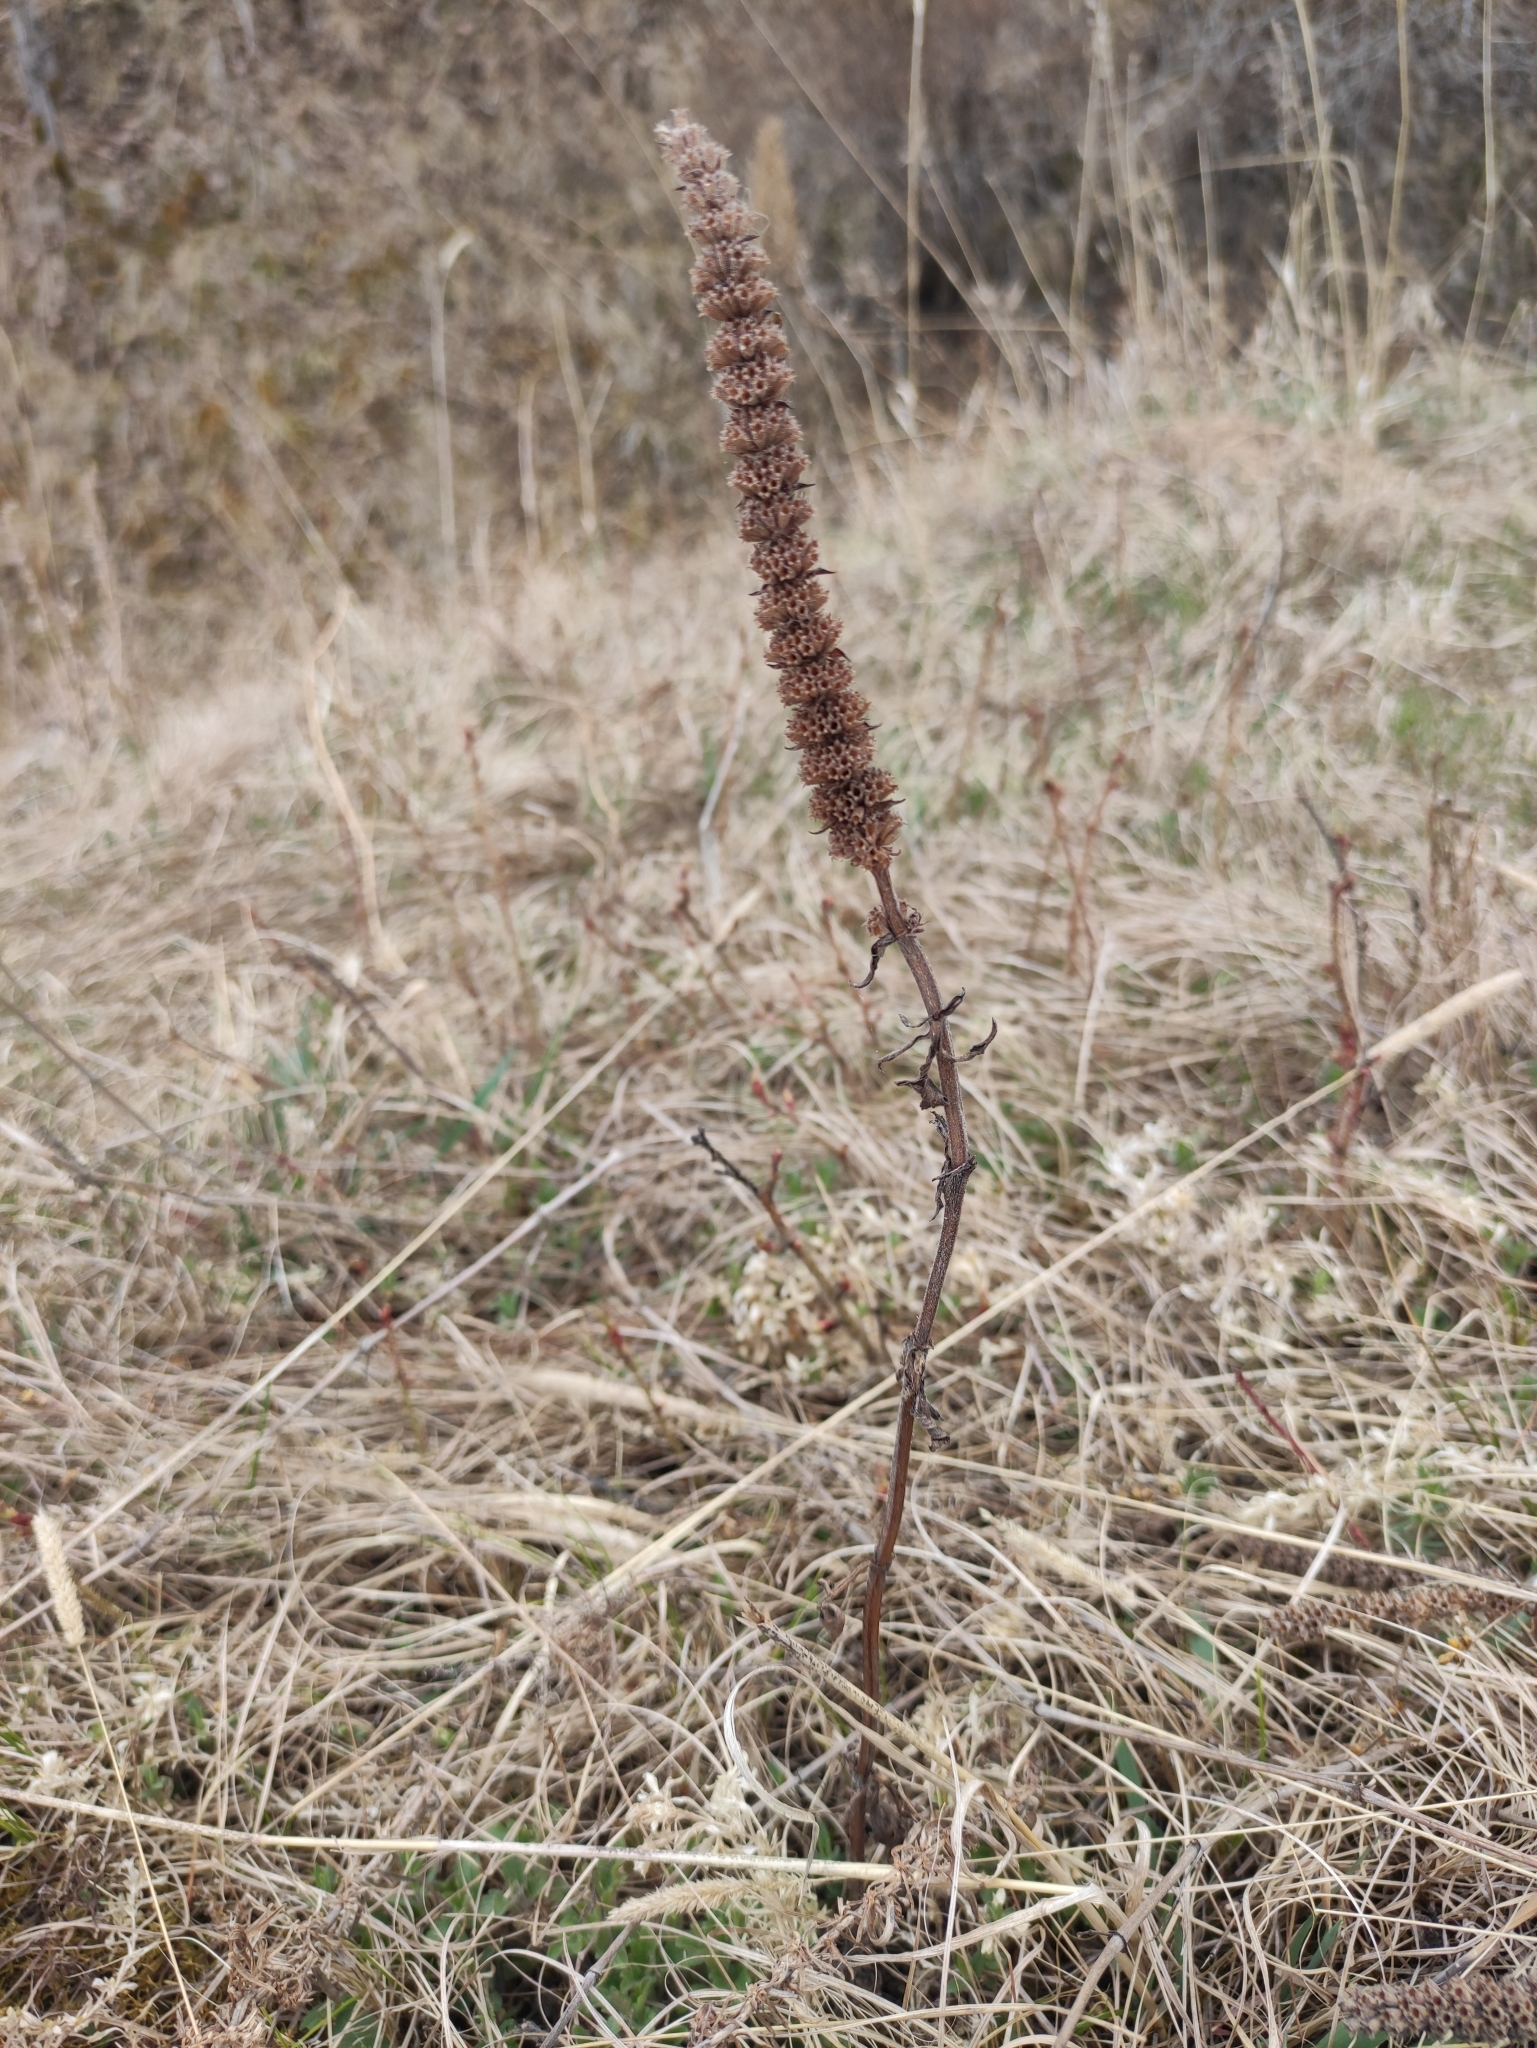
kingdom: Plantae
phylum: Tracheophyta
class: Magnoliopsida
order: Lamiales
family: Lamiaceae
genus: Nepeta
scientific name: Nepeta multifida
